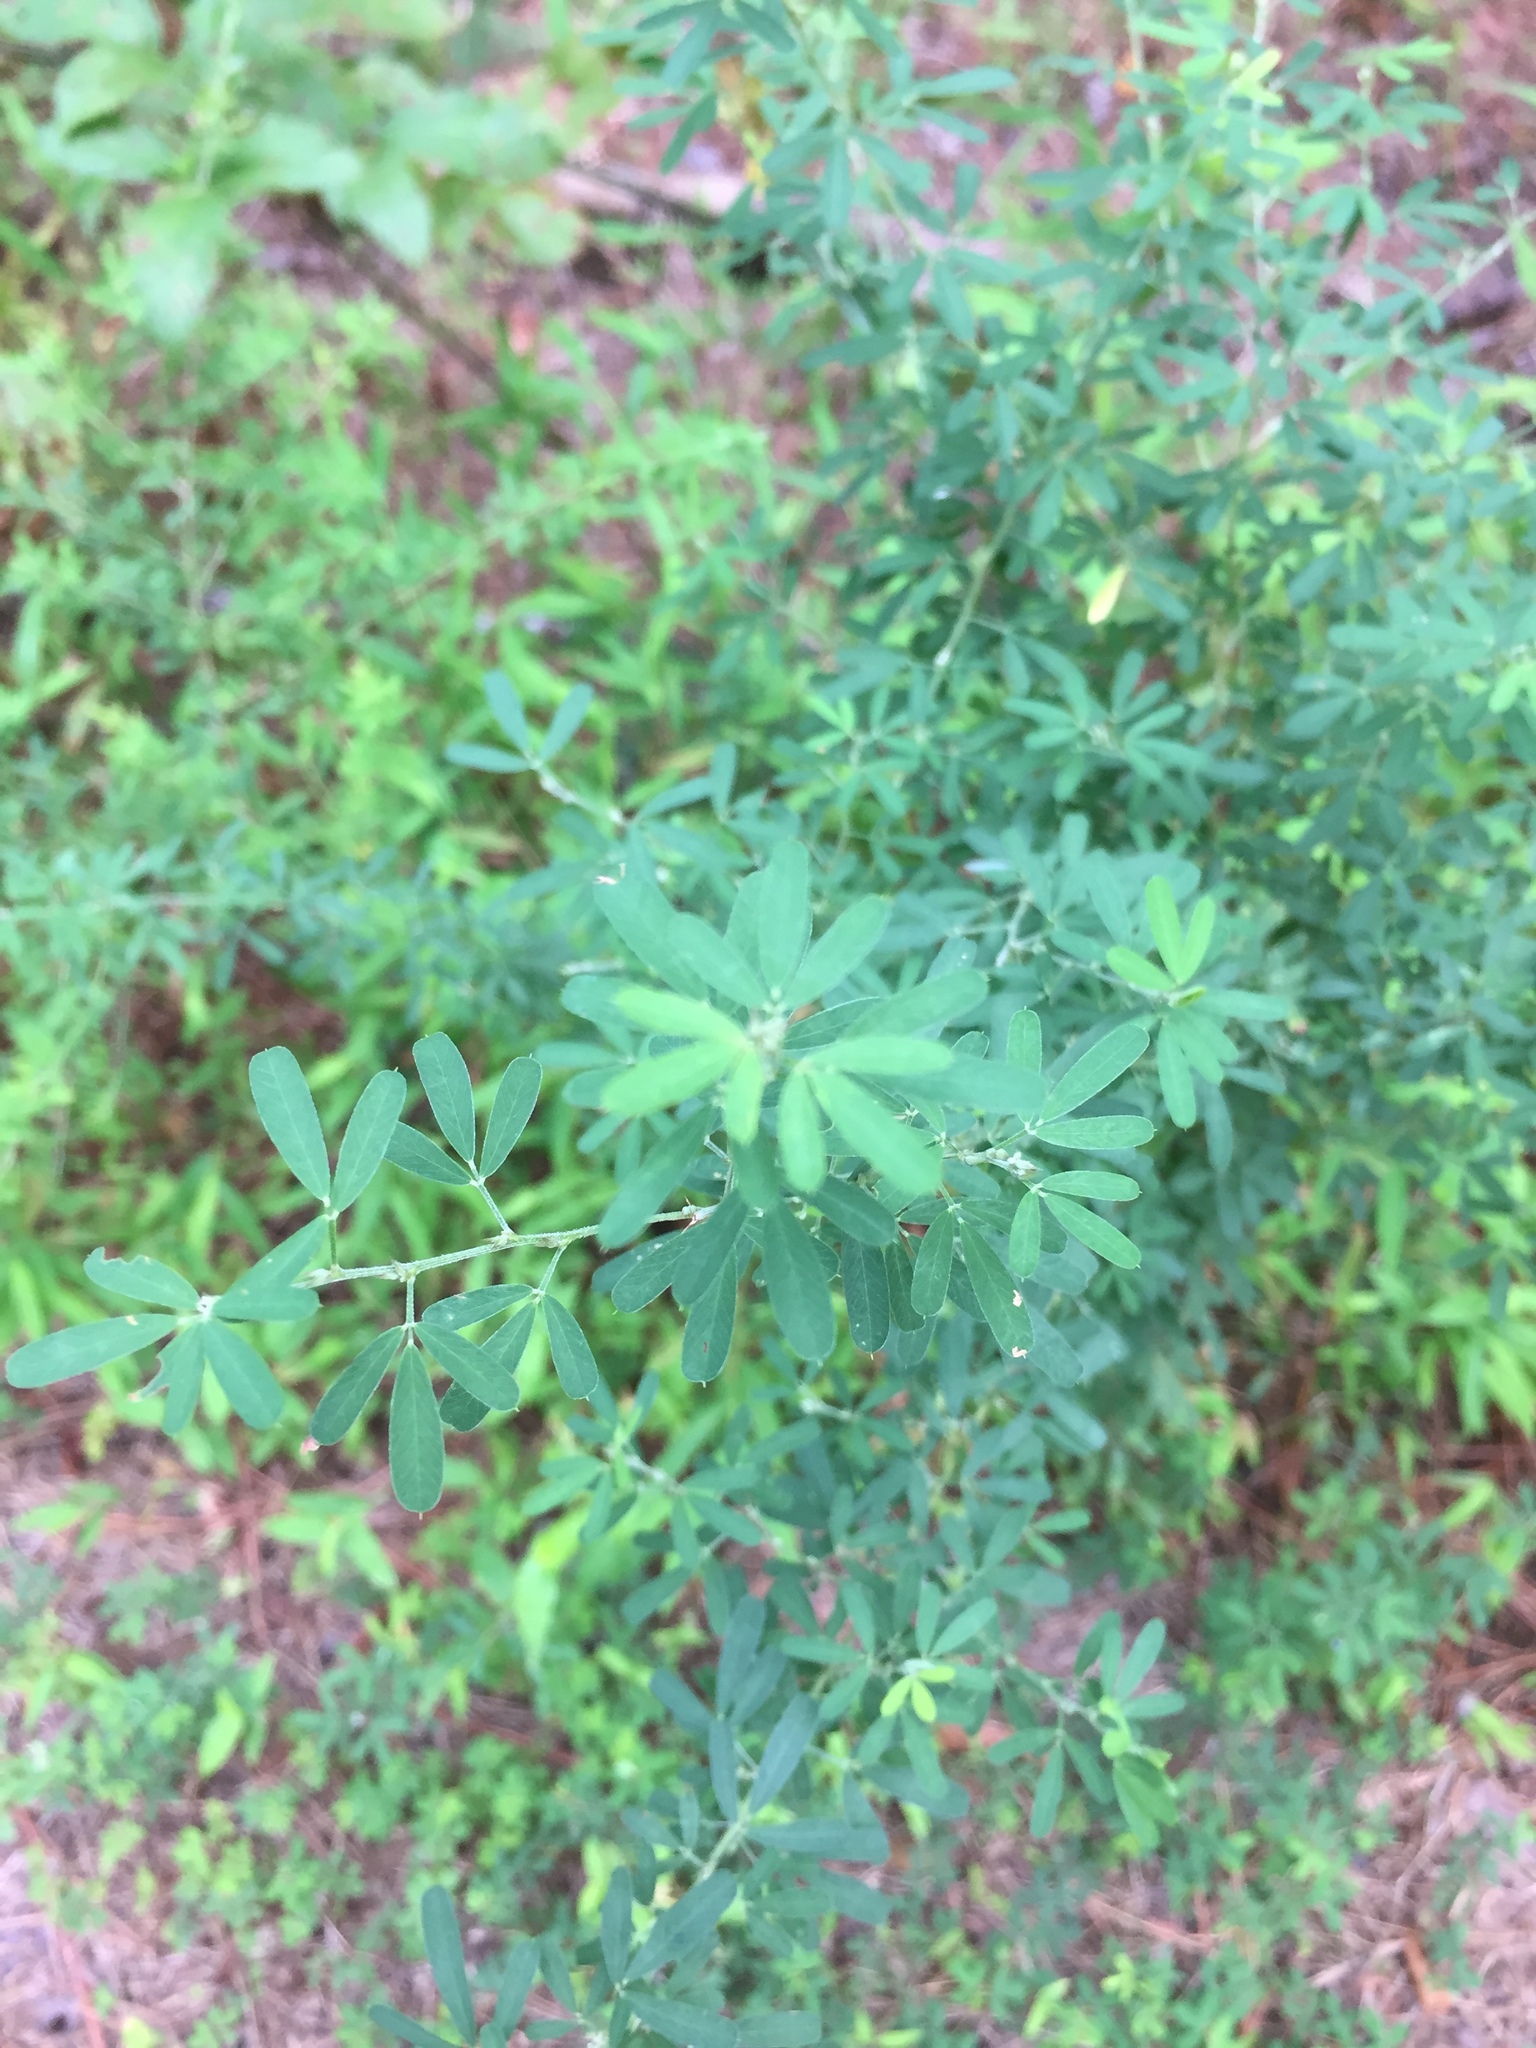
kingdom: Plantae
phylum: Tracheophyta
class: Magnoliopsida
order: Fabales
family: Fabaceae
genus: Lespedeza
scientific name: Lespedeza cuneata
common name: Chinese bush-clover
